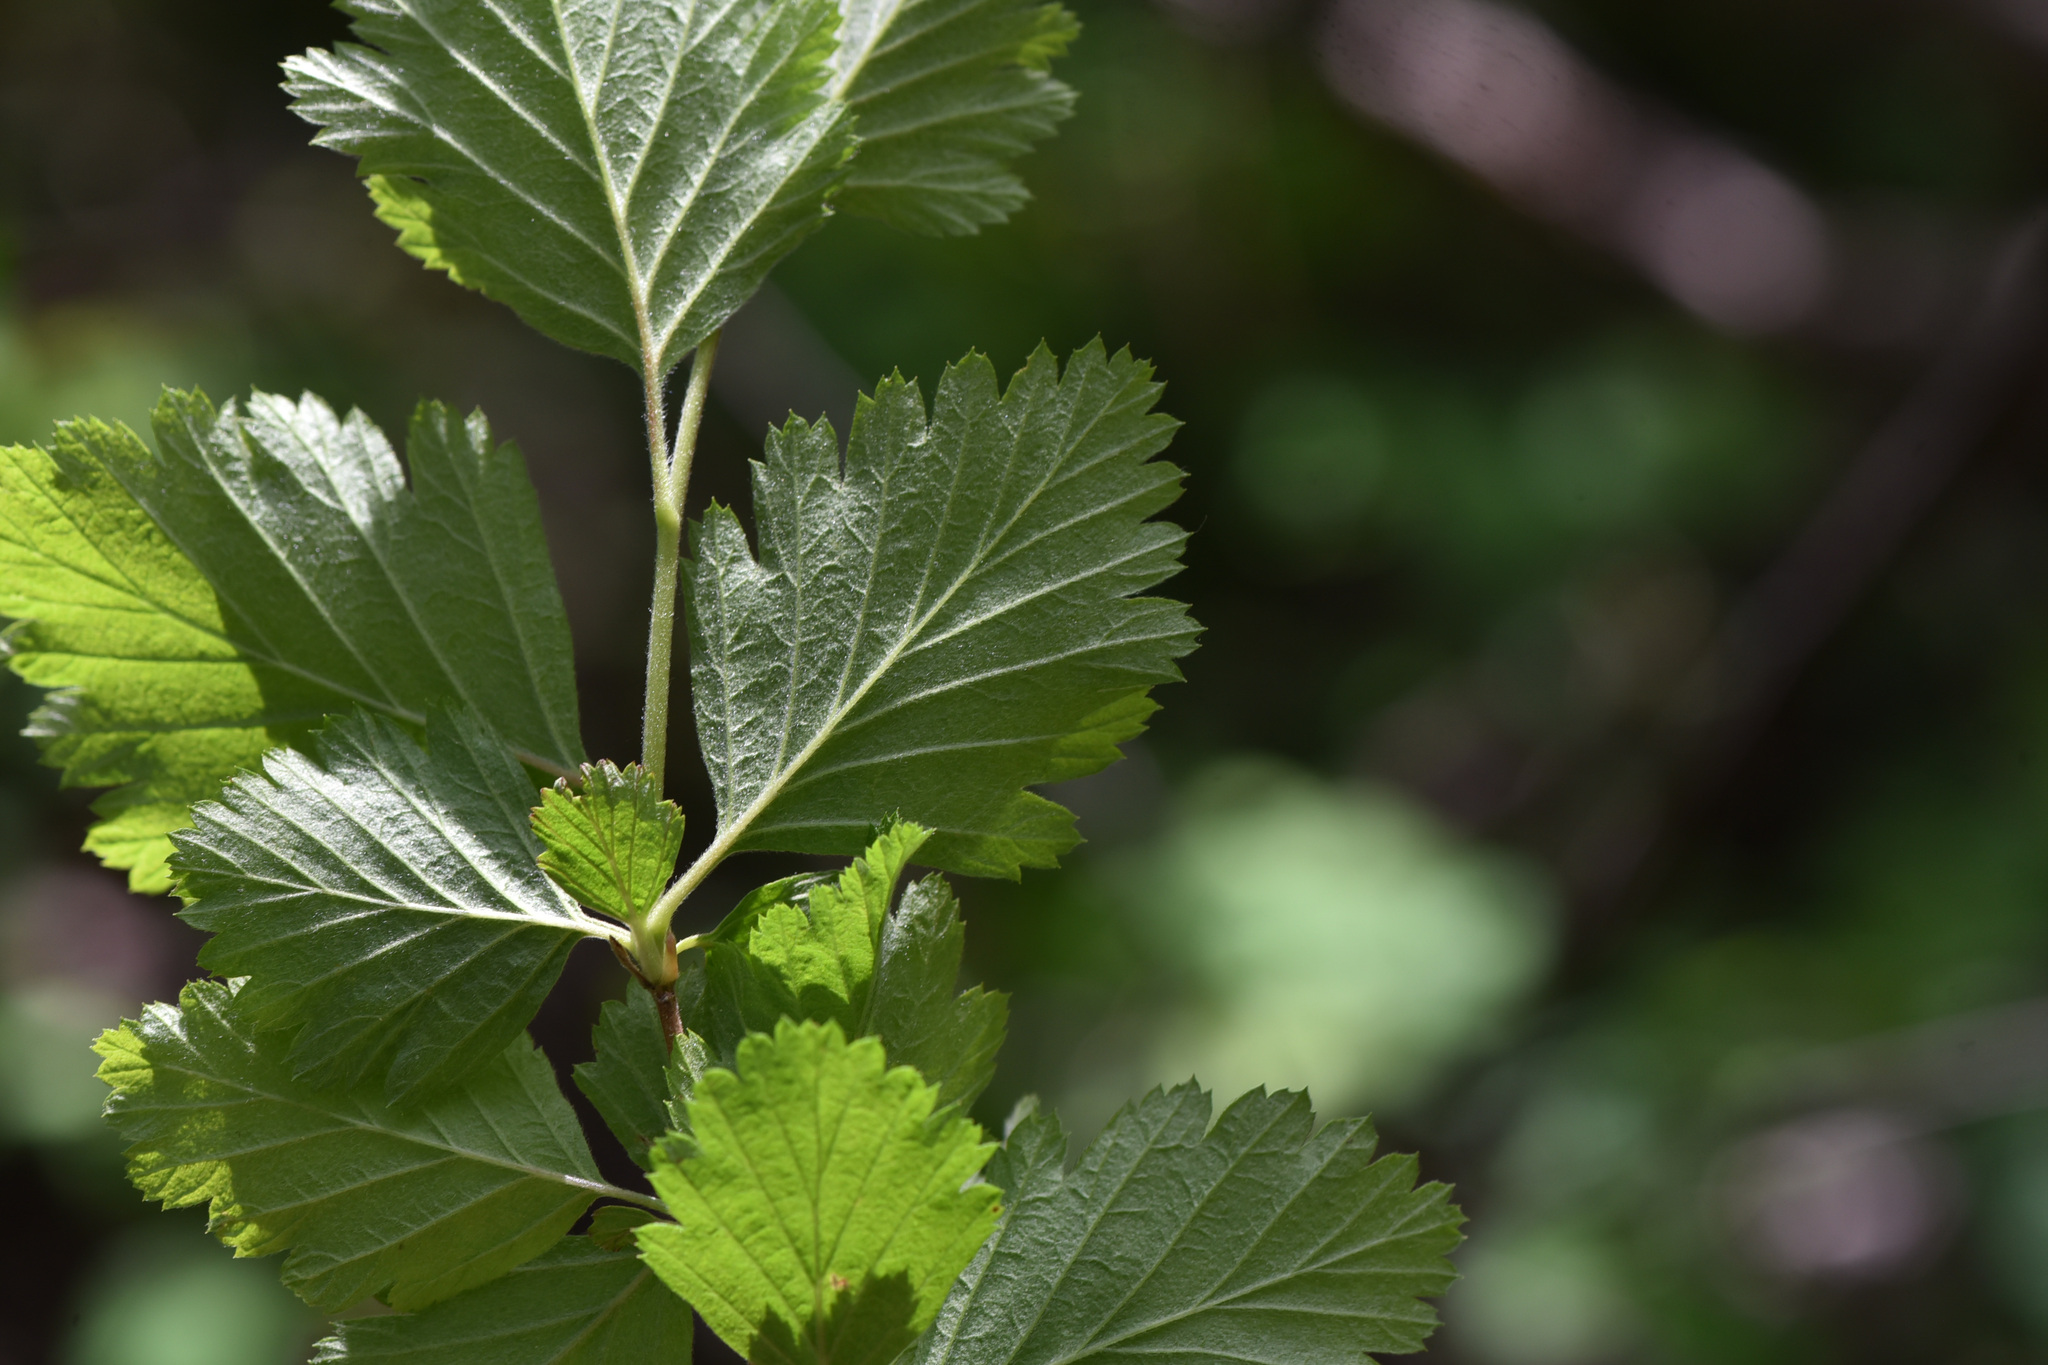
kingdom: Plantae
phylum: Tracheophyta
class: Magnoliopsida
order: Rosales
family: Rosaceae
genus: Holodiscus
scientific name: Holodiscus discolor
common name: Oceanspray
